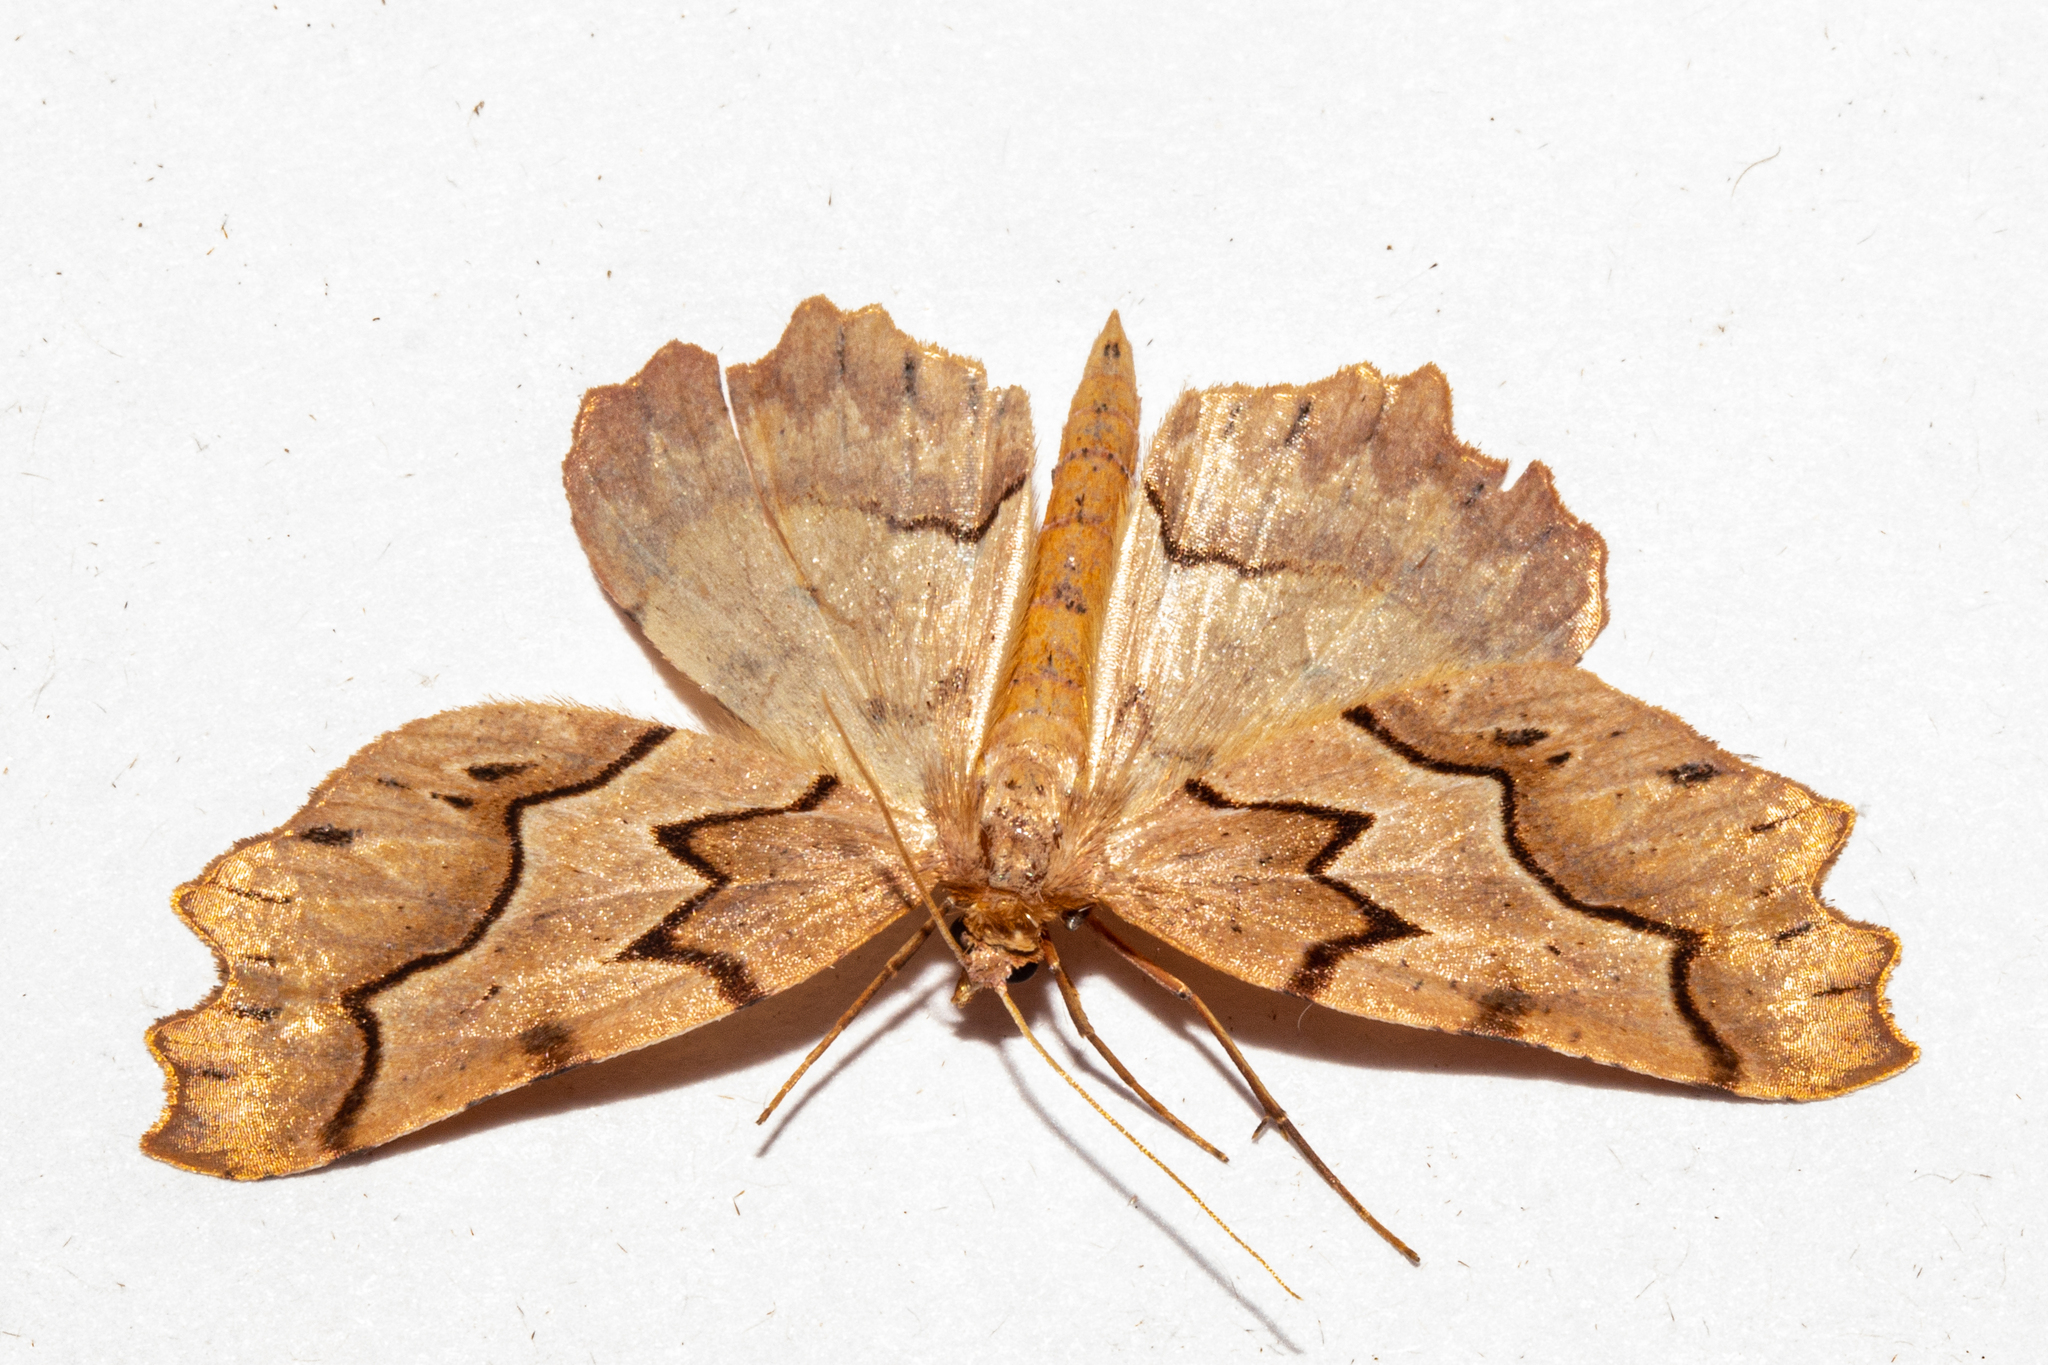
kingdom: Animalia
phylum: Arthropoda
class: Insecta
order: Lepidoptera
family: Geometridae
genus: Ischalis
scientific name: Ischalis fortinata
